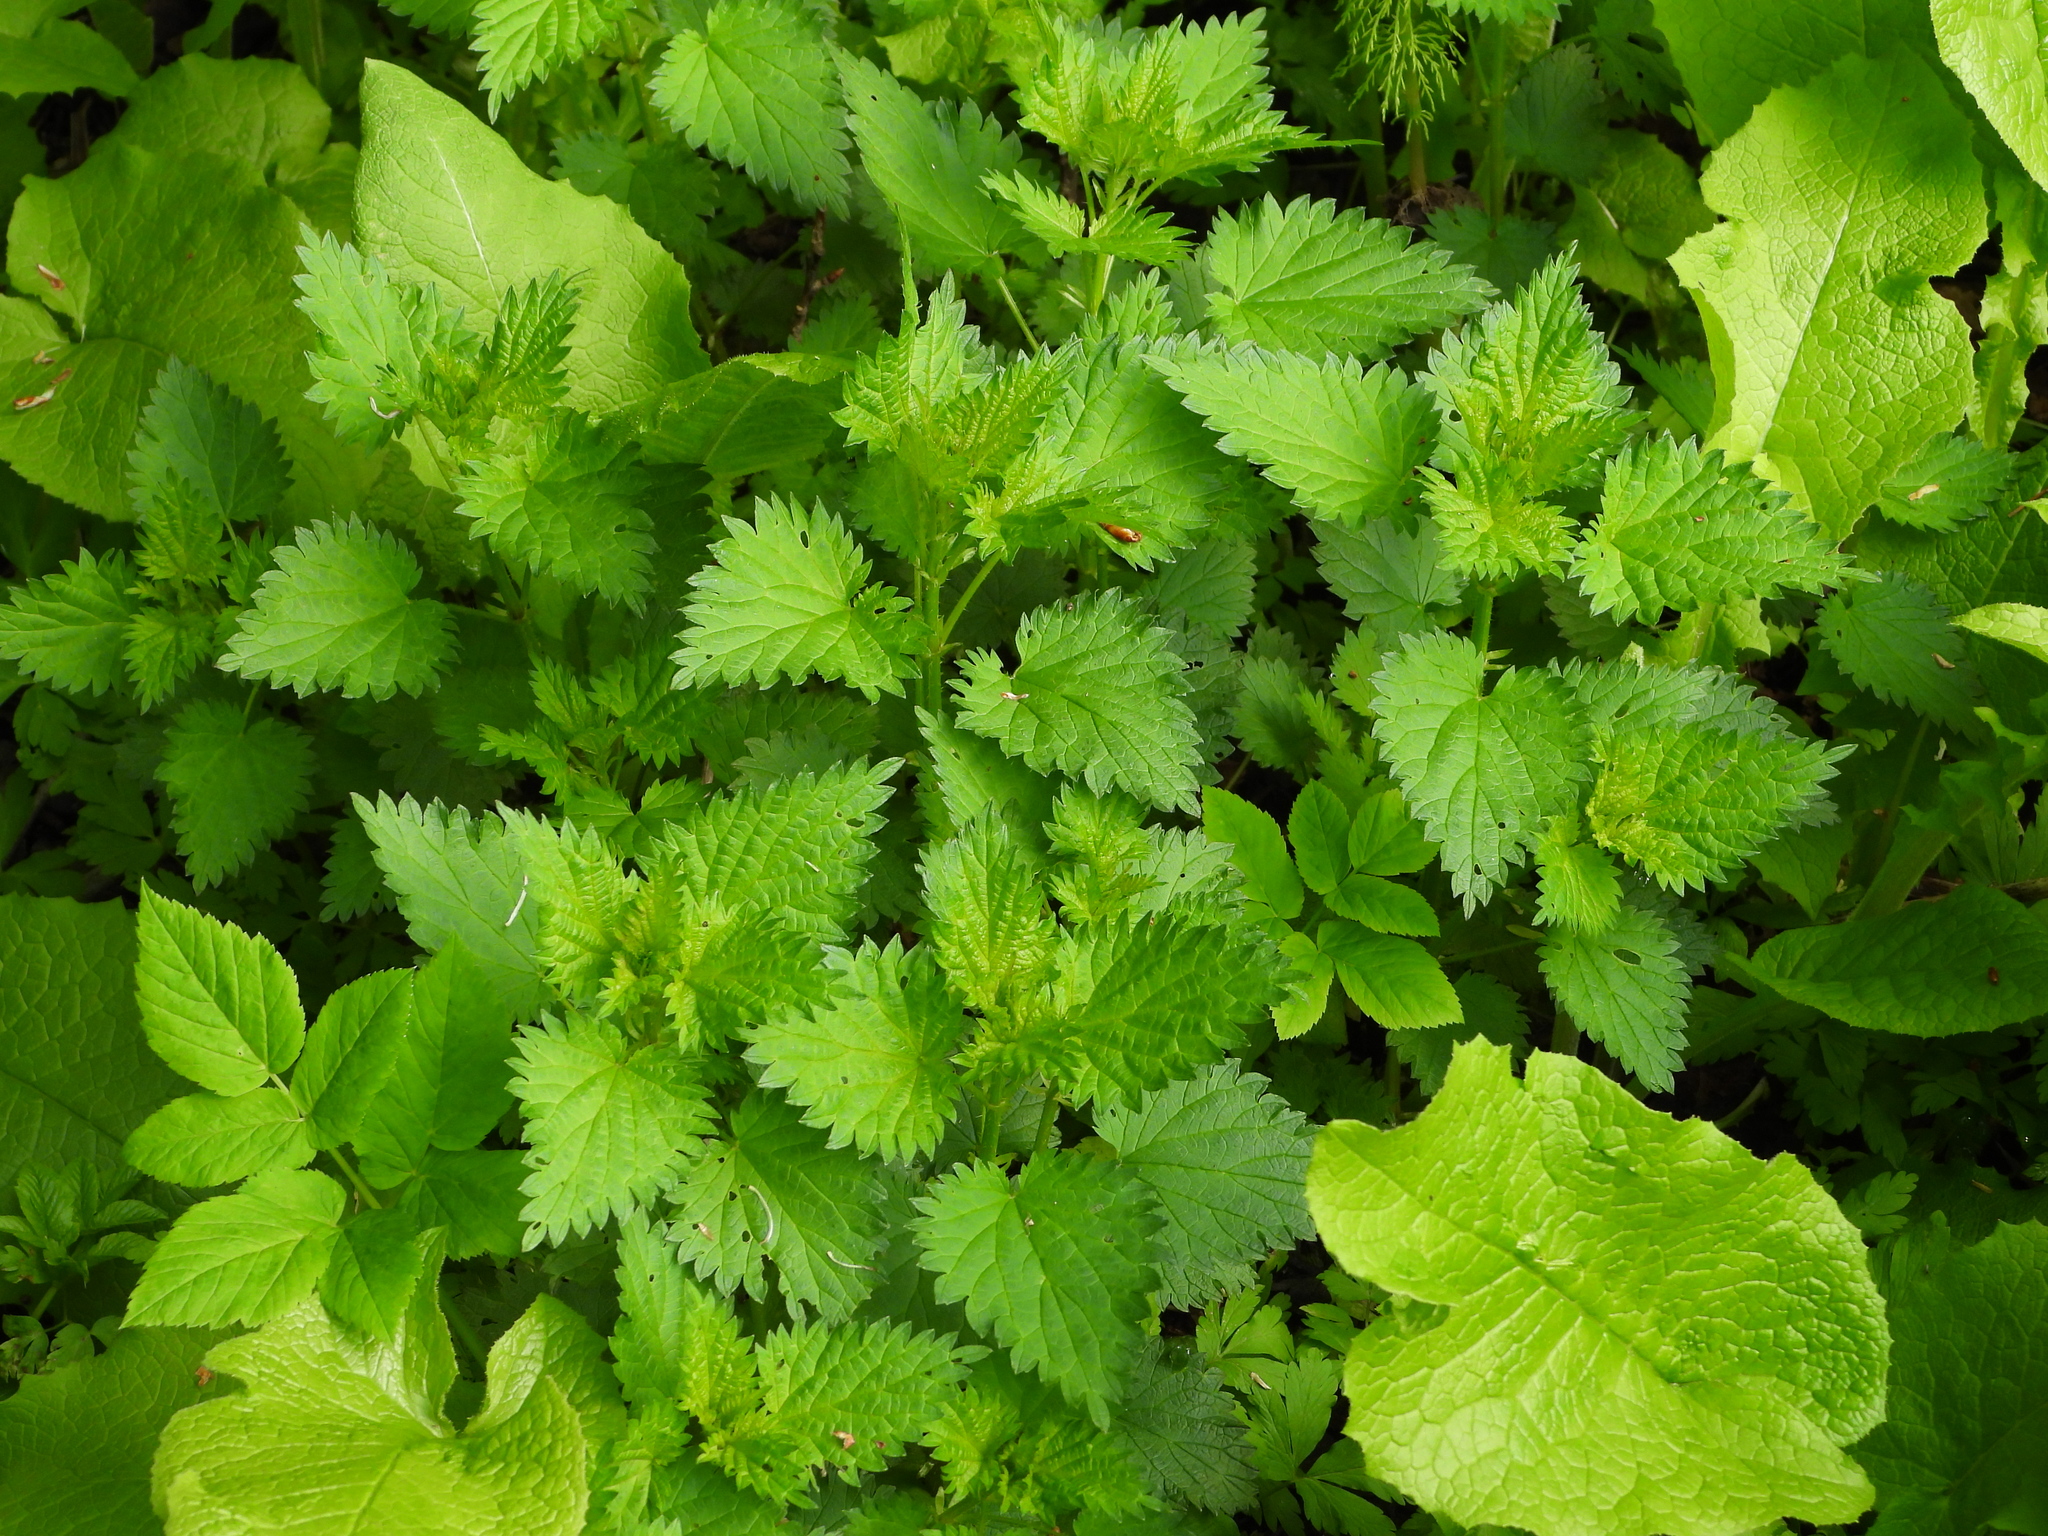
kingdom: Plantae
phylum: Tracheophyta
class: Magnoliopsida
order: Rosales
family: Urticaceae
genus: Urtica
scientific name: Urtica dioica
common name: Common nettle
